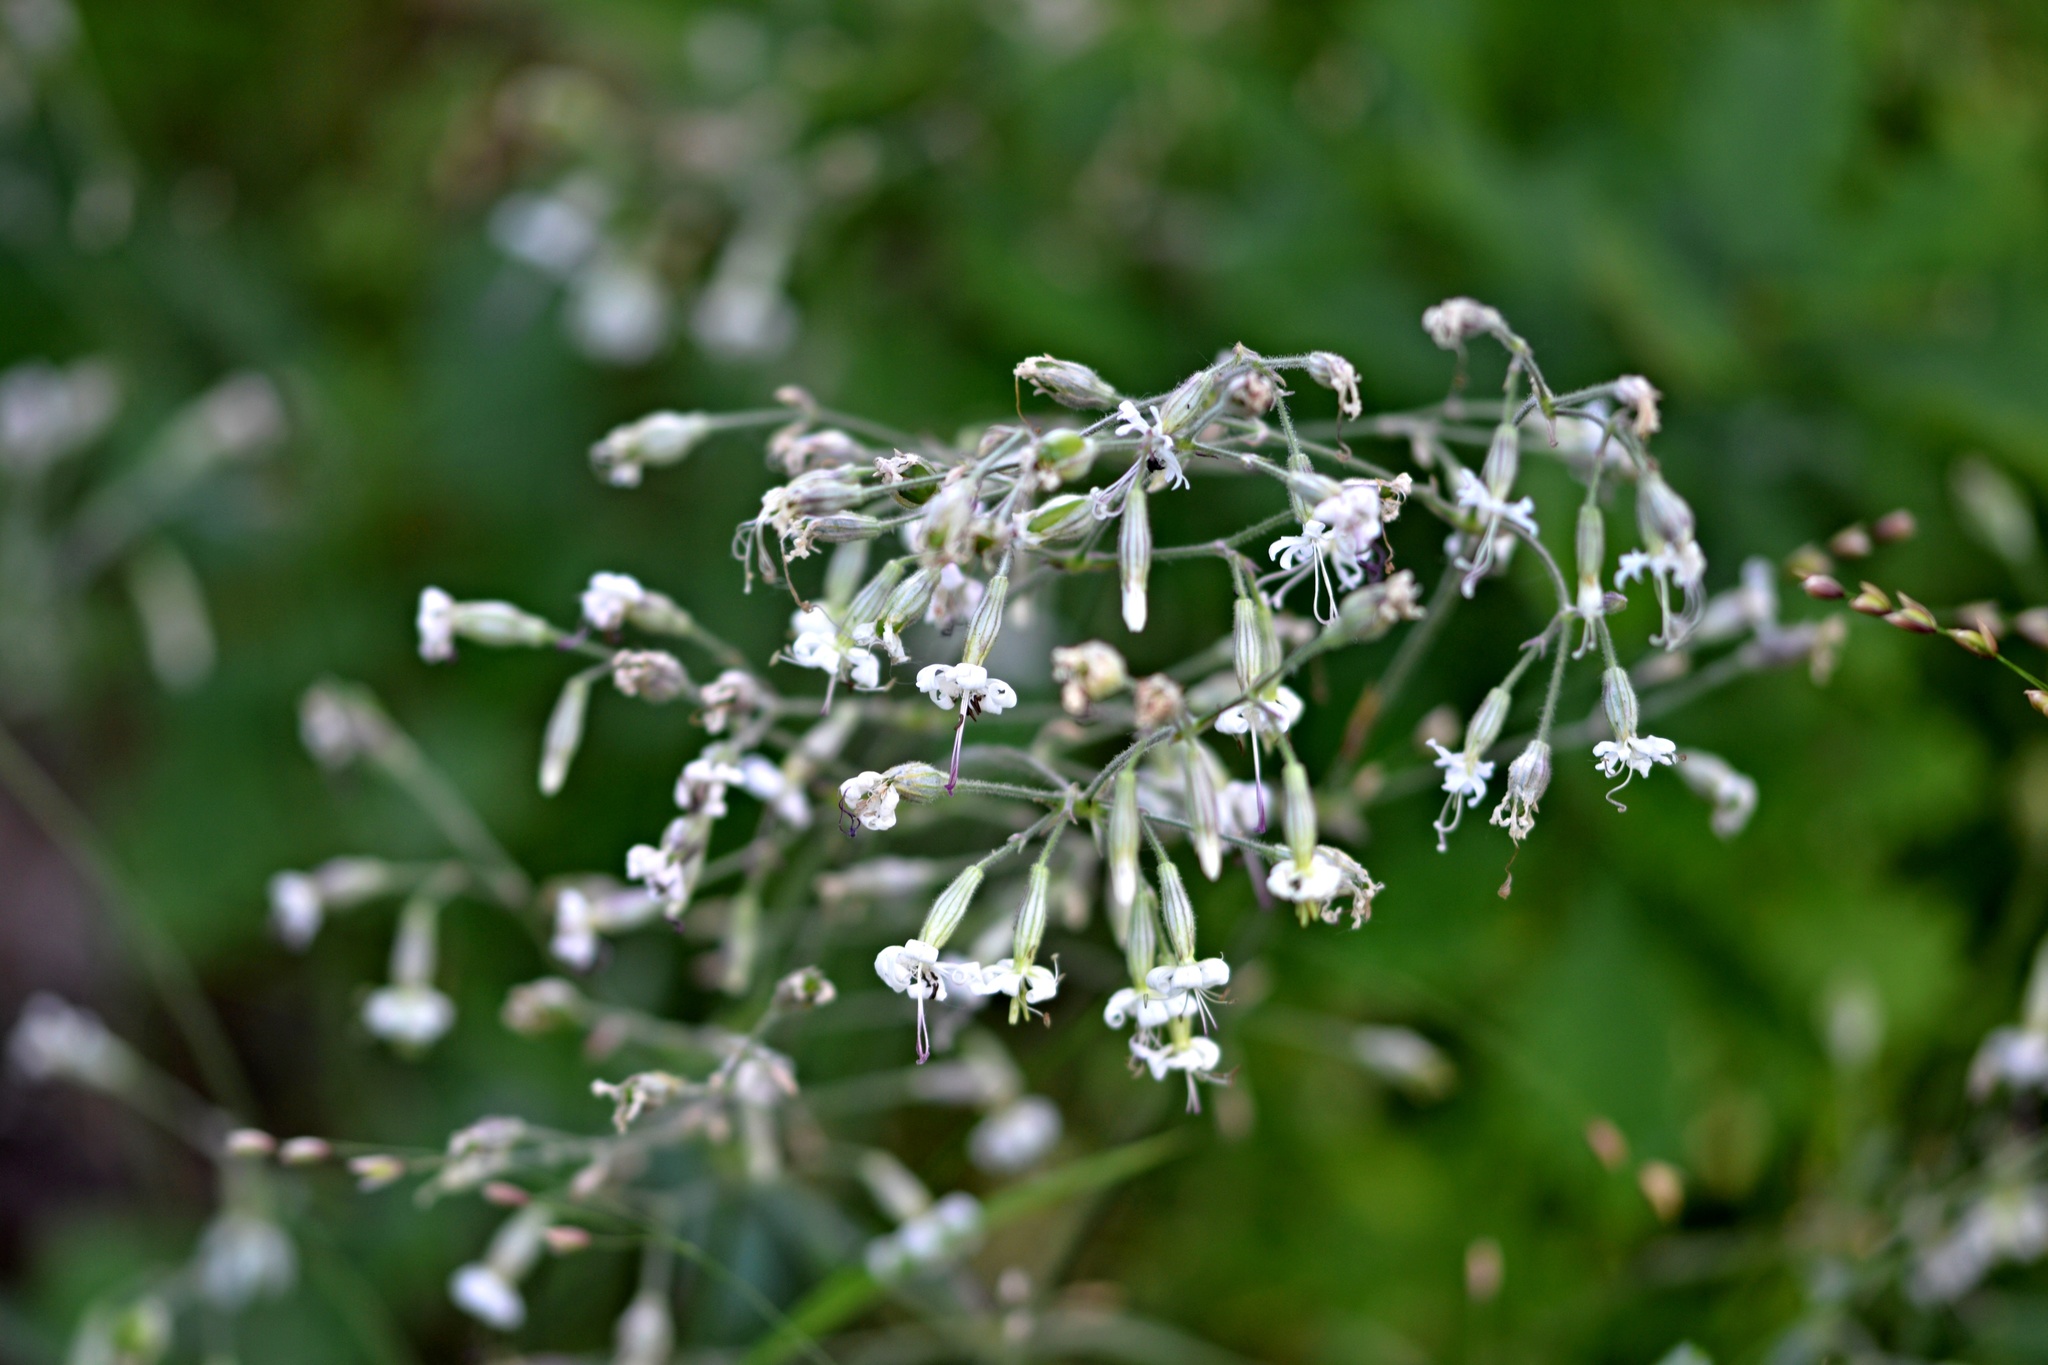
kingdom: Plantae
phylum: Tracheophyta
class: Magnoliopsida
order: Caryophyllales
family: Caryophyllaceae
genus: Silene
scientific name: Silene nutans
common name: Nottingham catchfly
